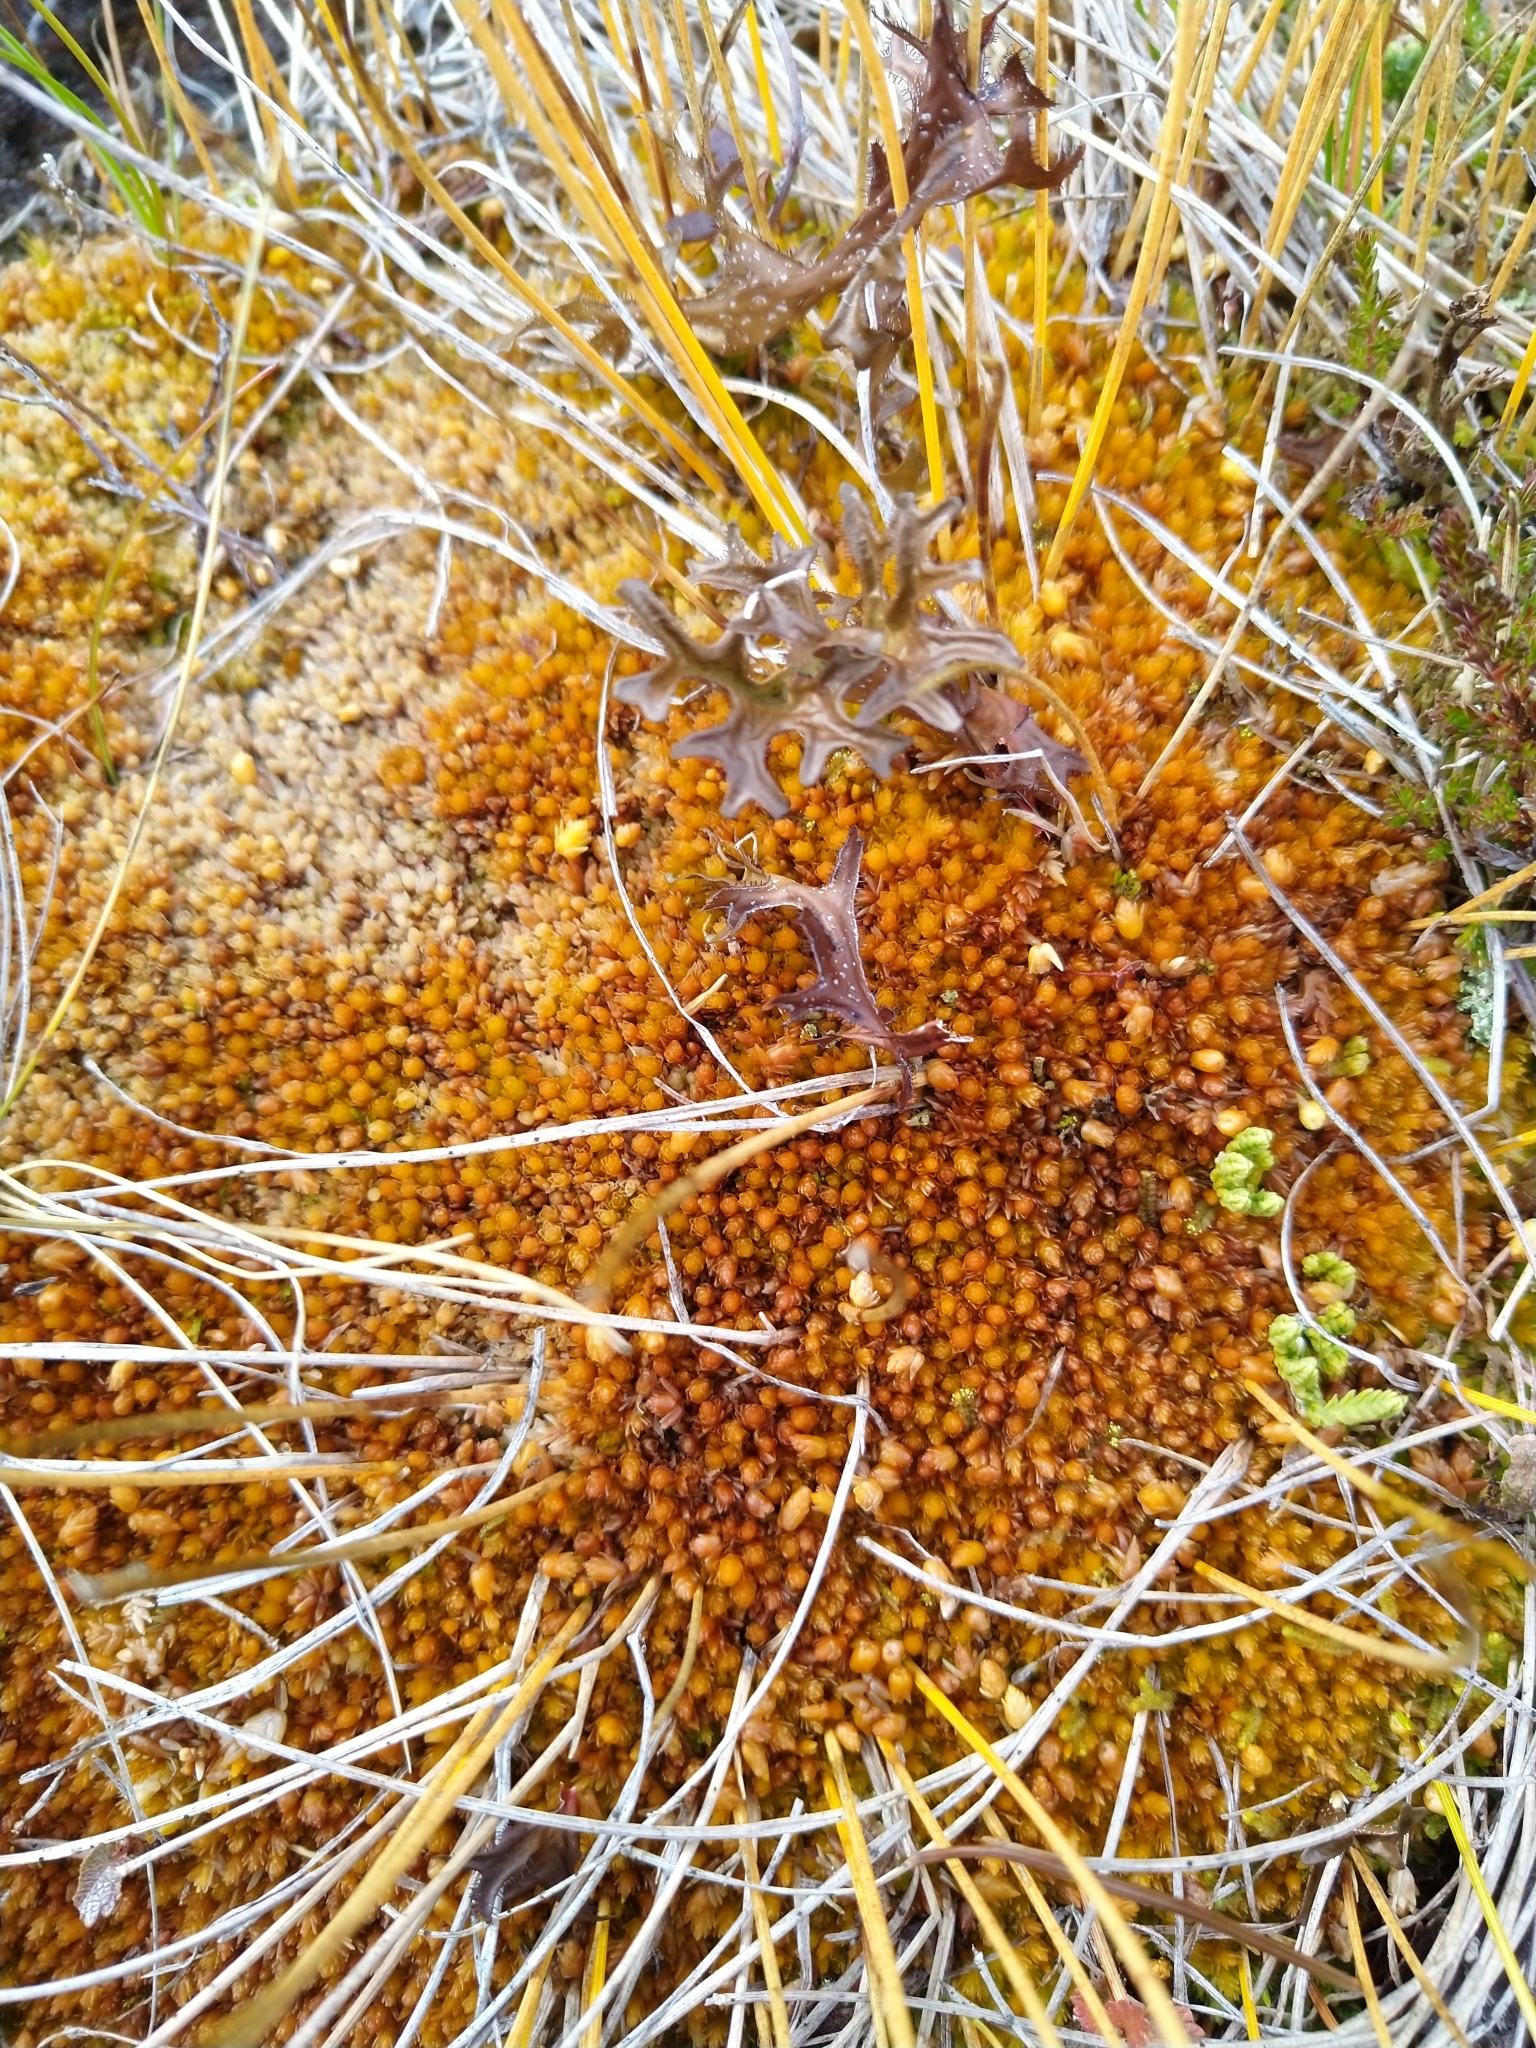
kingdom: Plantae
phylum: Bryophyta
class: Sphagnopsida
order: Sphagnales
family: Sphagnaceae
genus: Sphagnum
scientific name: Sphagnum compactum
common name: Compact peat moss
